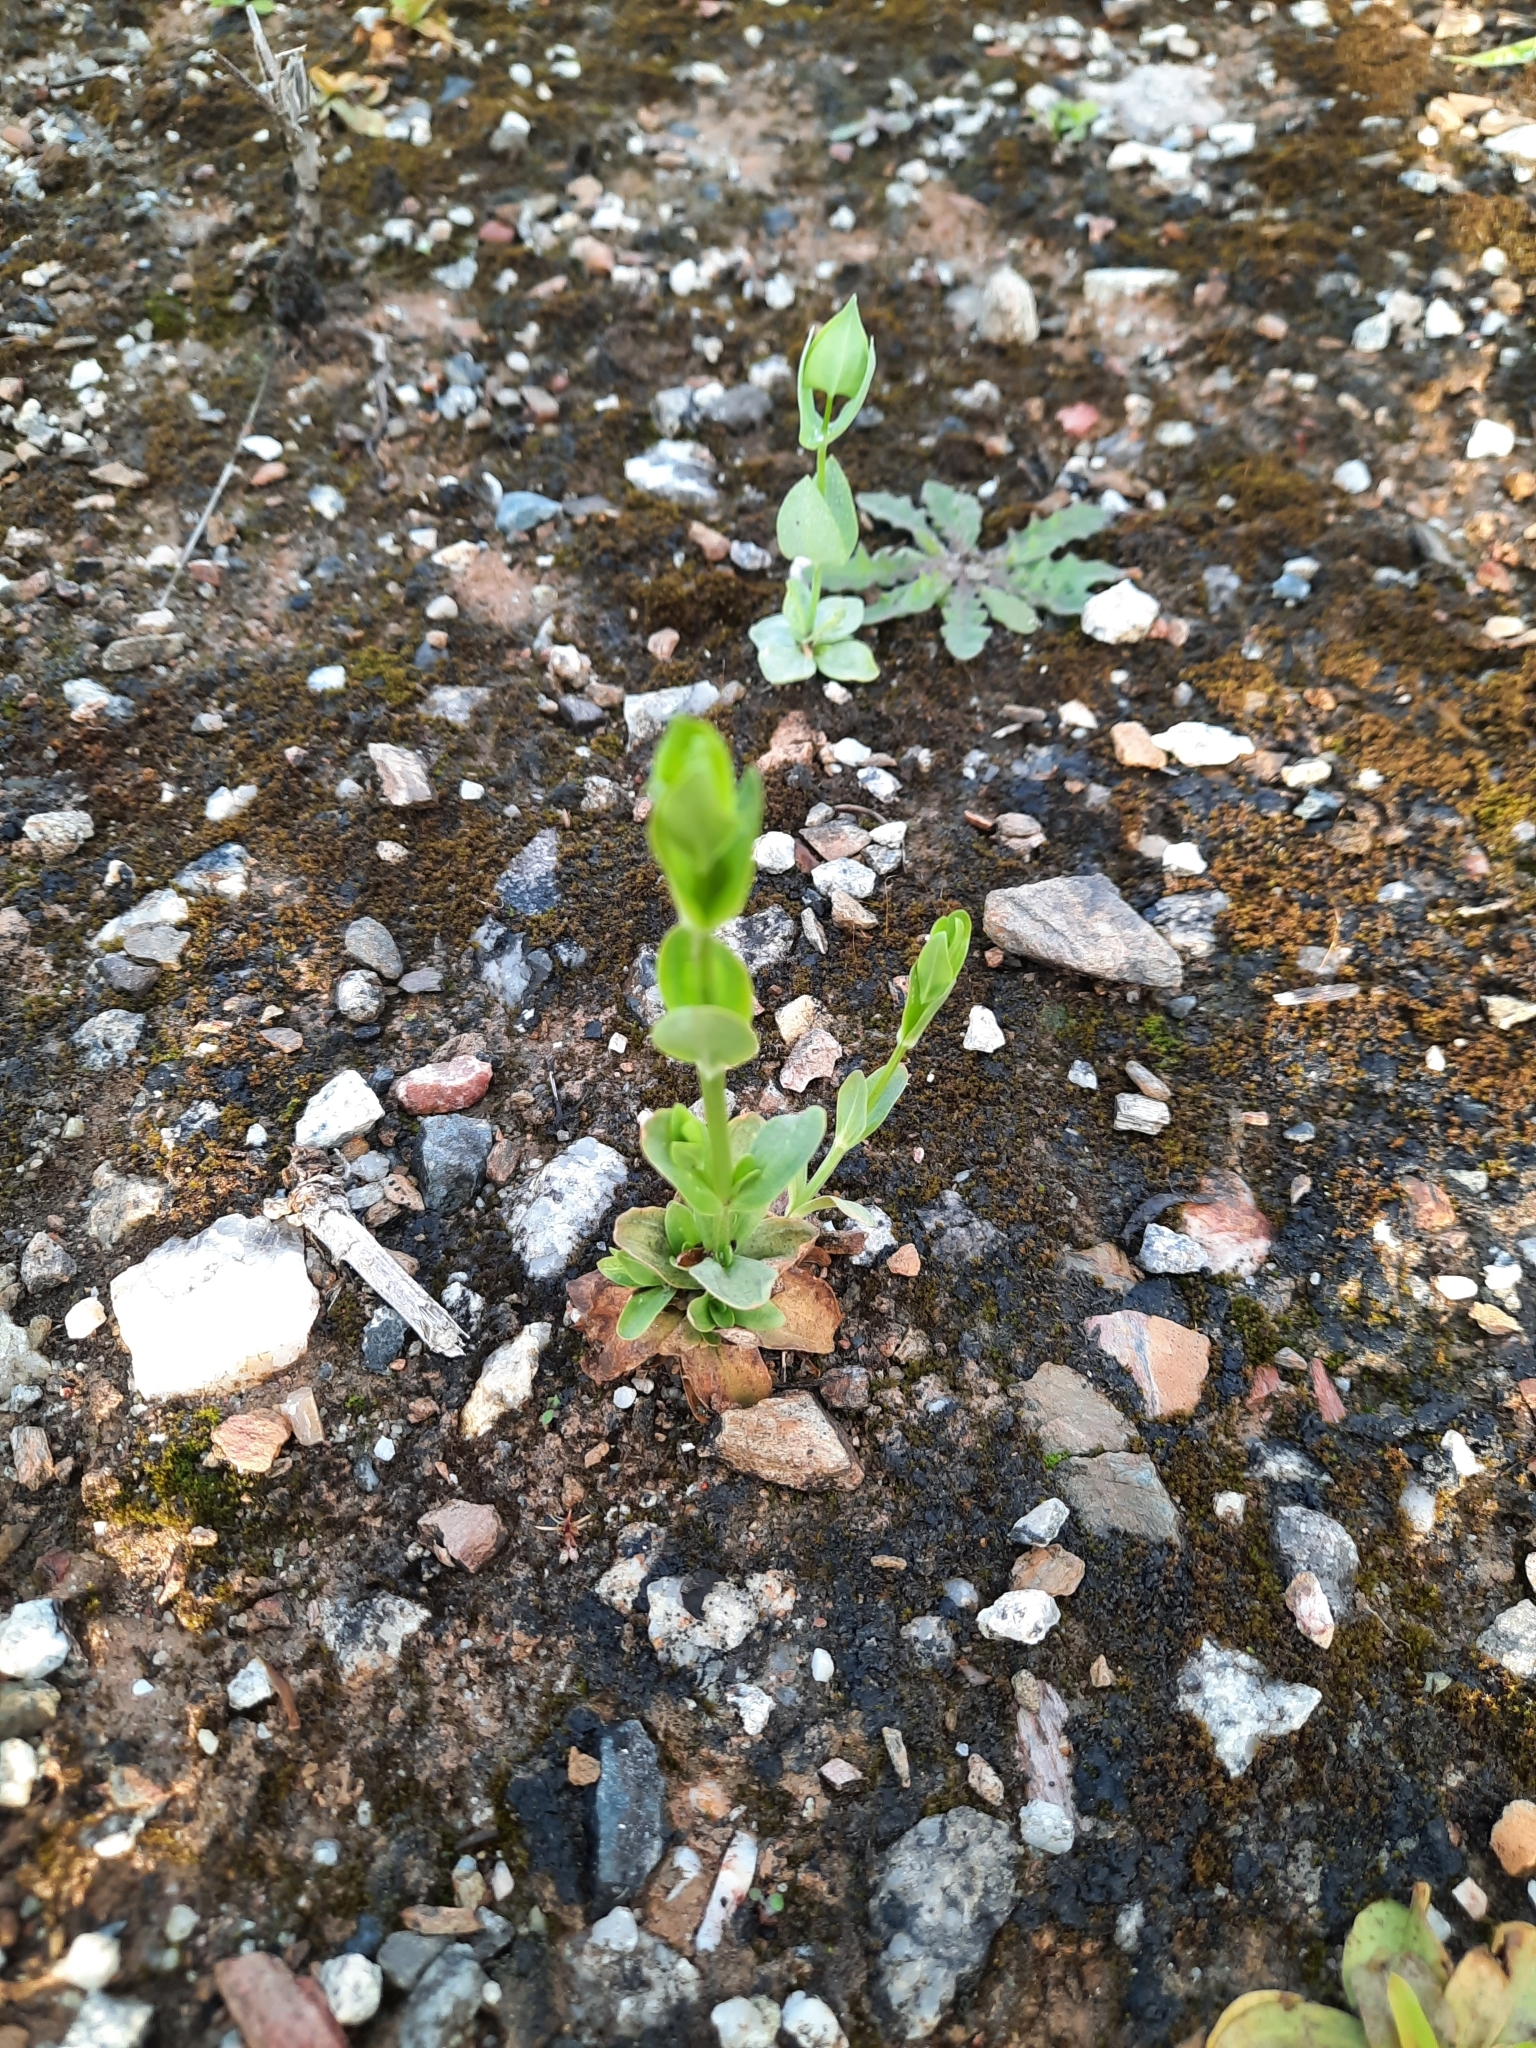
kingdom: Plantae
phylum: Tracheophyta
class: Magnoliopsida
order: Gentianales
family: Gentianaceae
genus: Blackstonia
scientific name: Blackstonia perfoliata
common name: Yellow-wort
